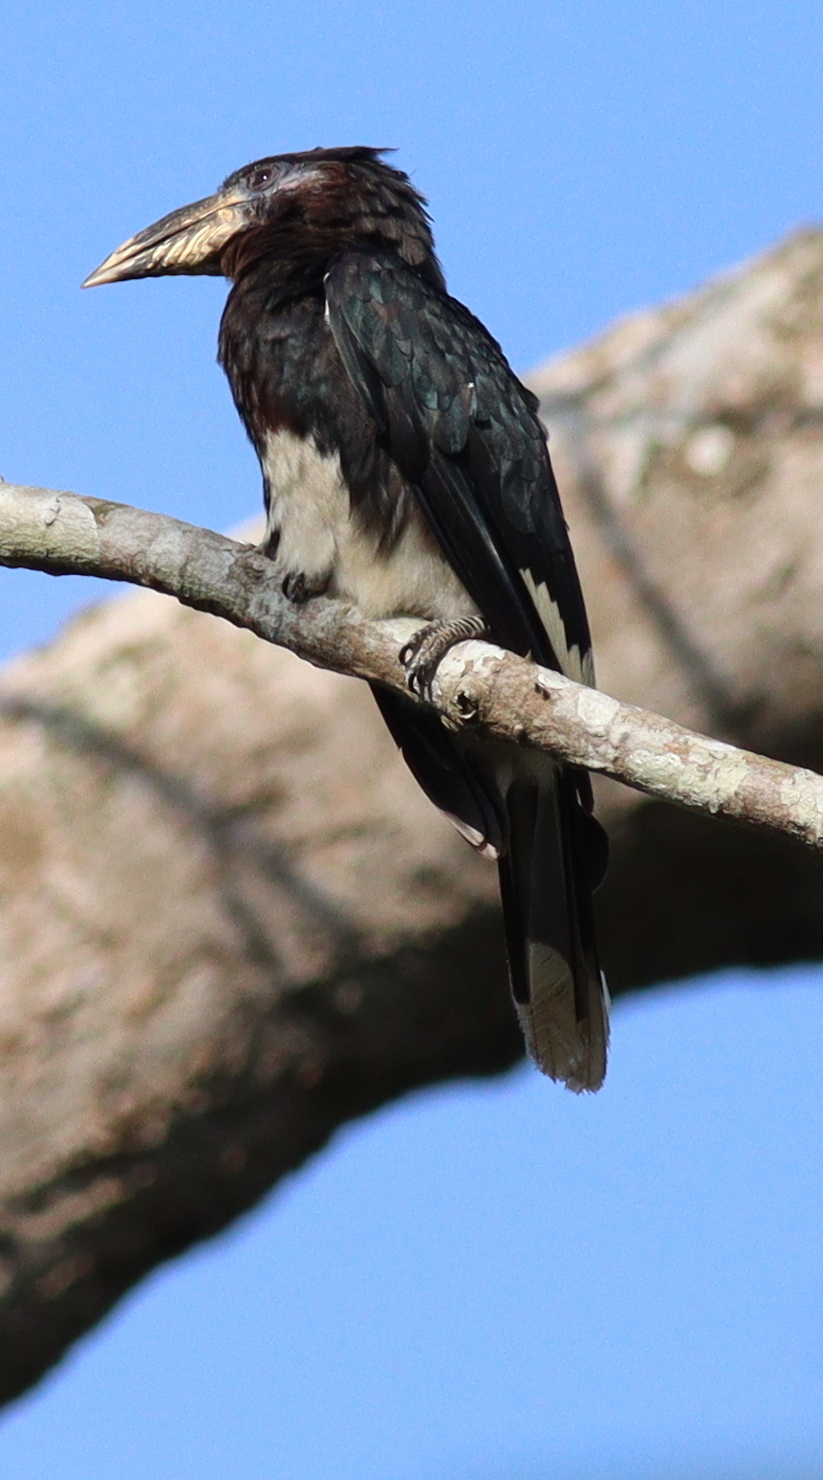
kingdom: Animalia
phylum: Chordata
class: Aves
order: Bucerotiformes
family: Bucerotidae
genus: Bycanistes
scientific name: Bycanistes fistulator
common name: Piping hornbill
